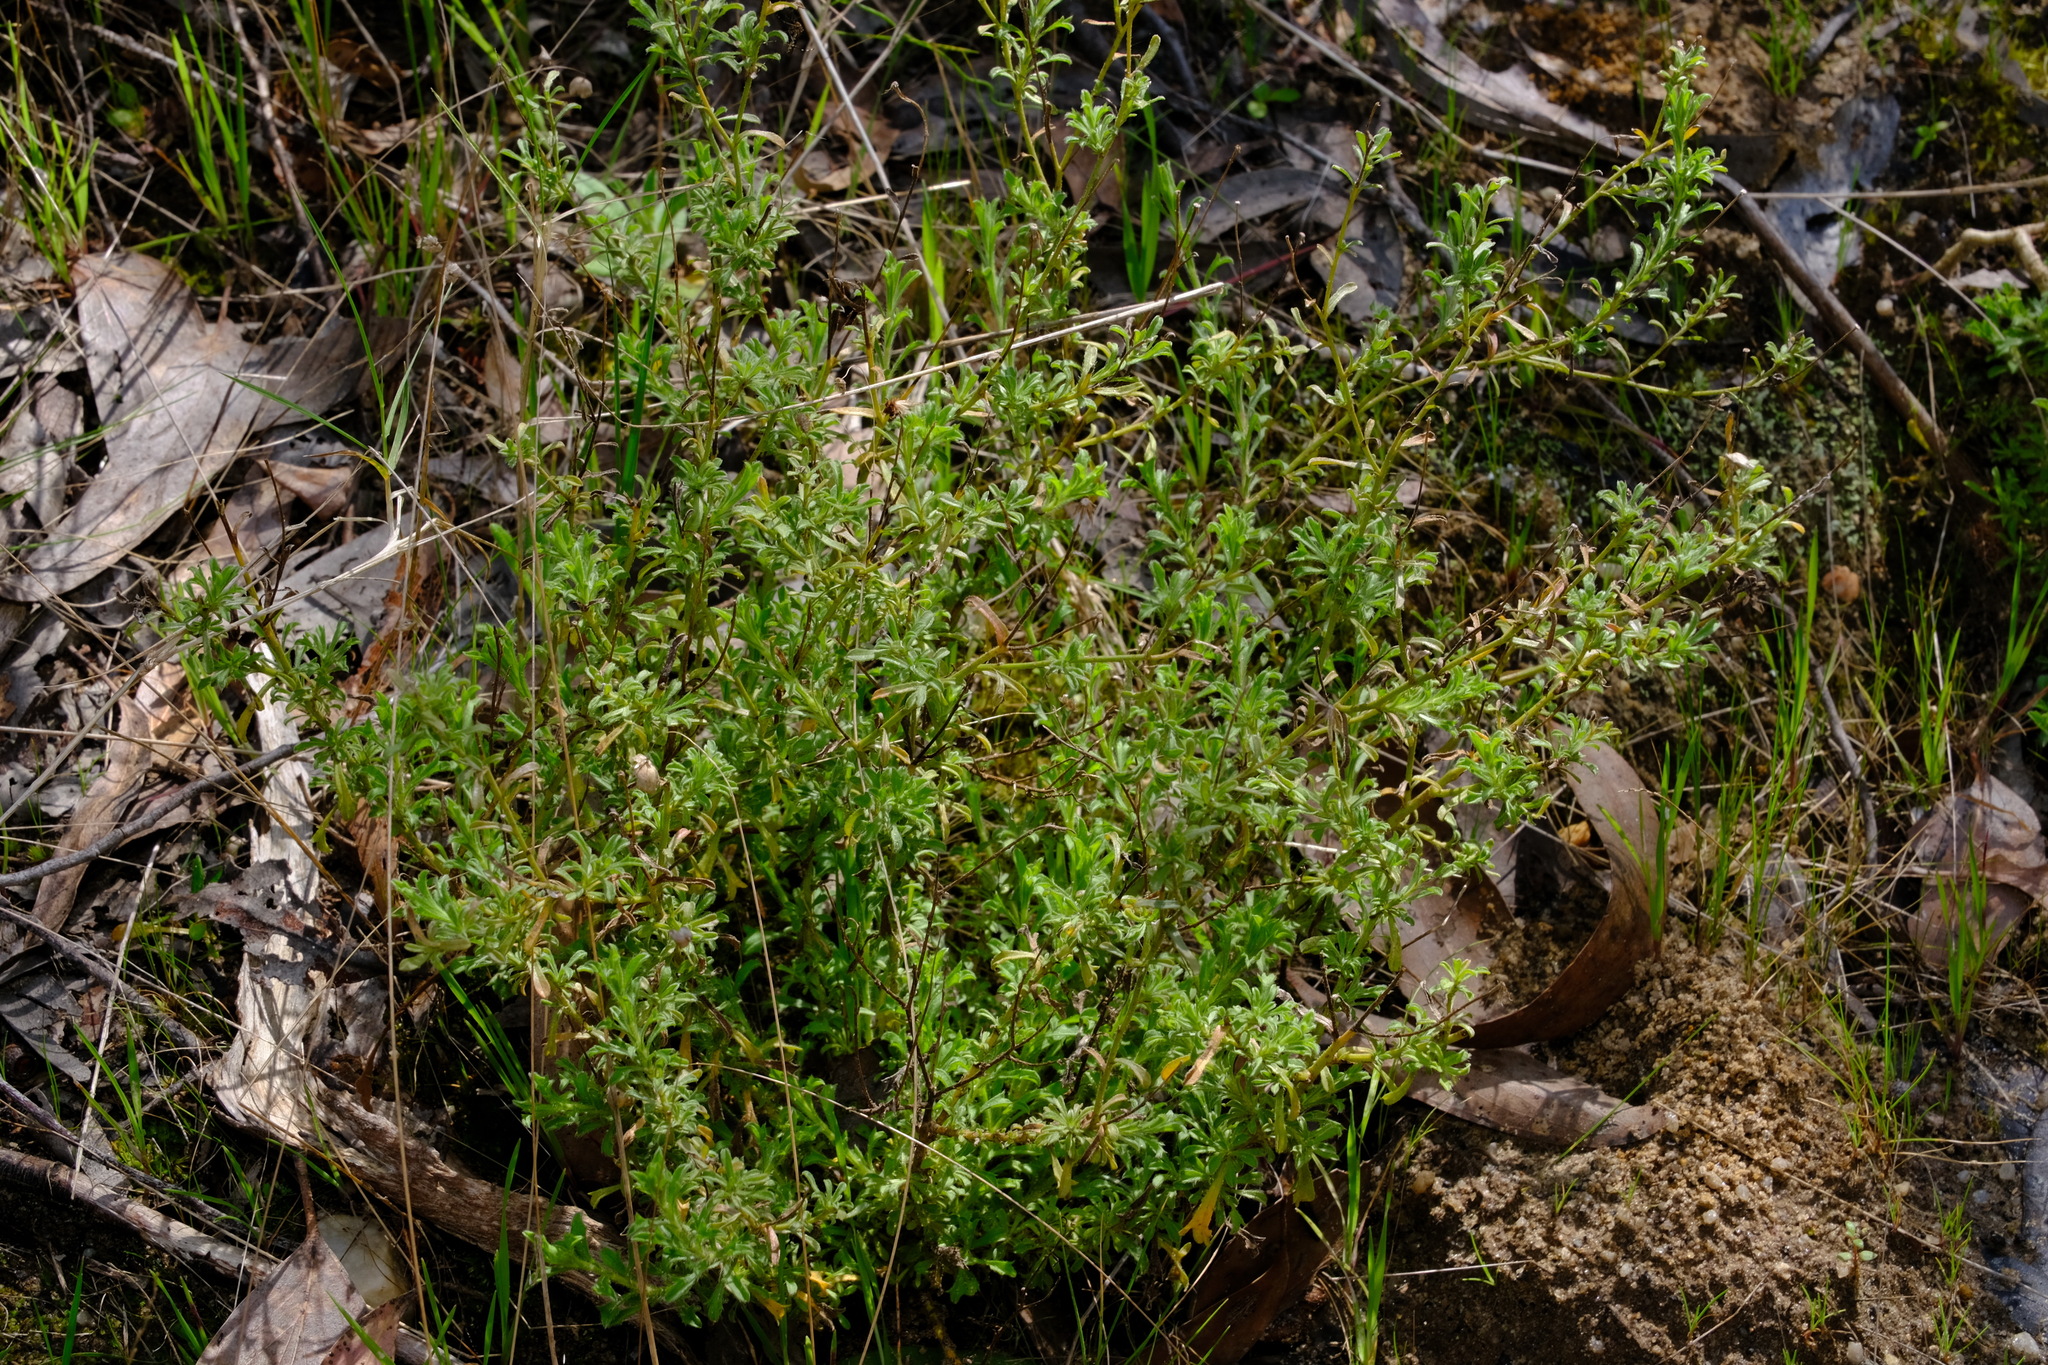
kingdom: Plantae
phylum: Tracheophyta
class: Magnoliopsida
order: Asterales
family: Asteraceae
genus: Vittadinia
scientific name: Vittadinia gracilis
